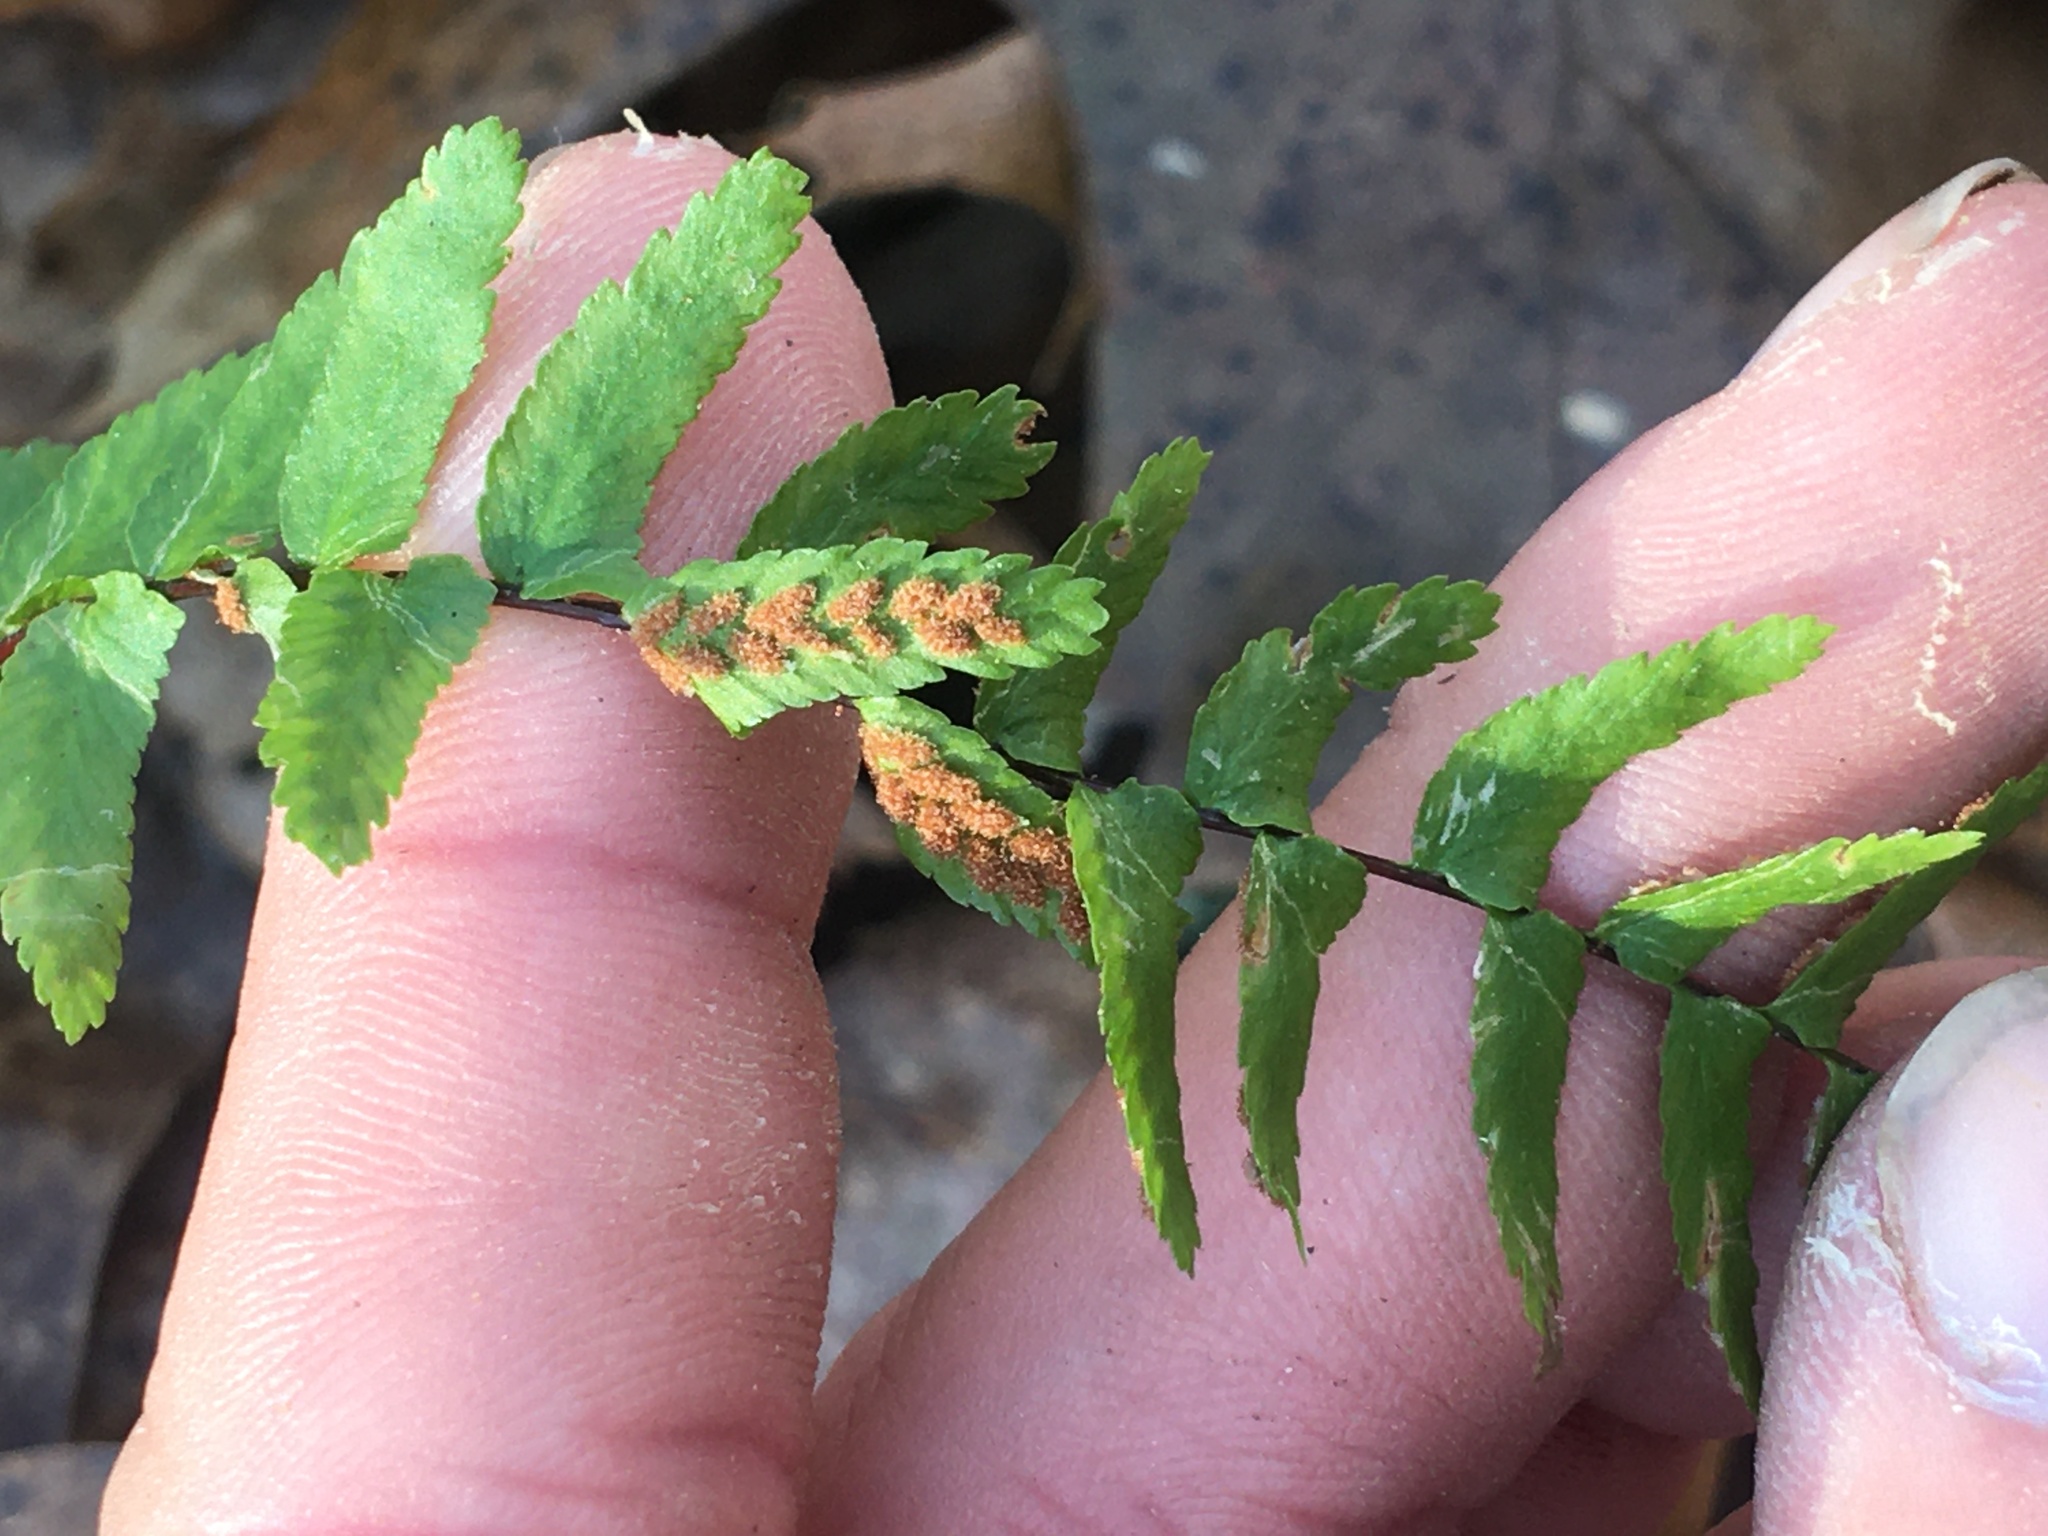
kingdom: Plantae
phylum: Tracheophyta
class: Polypodiopsida
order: Polypodiales
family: Aspleniaceae
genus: Asplenium
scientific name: Asplenium platyneuron
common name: Ebony spleenwort
